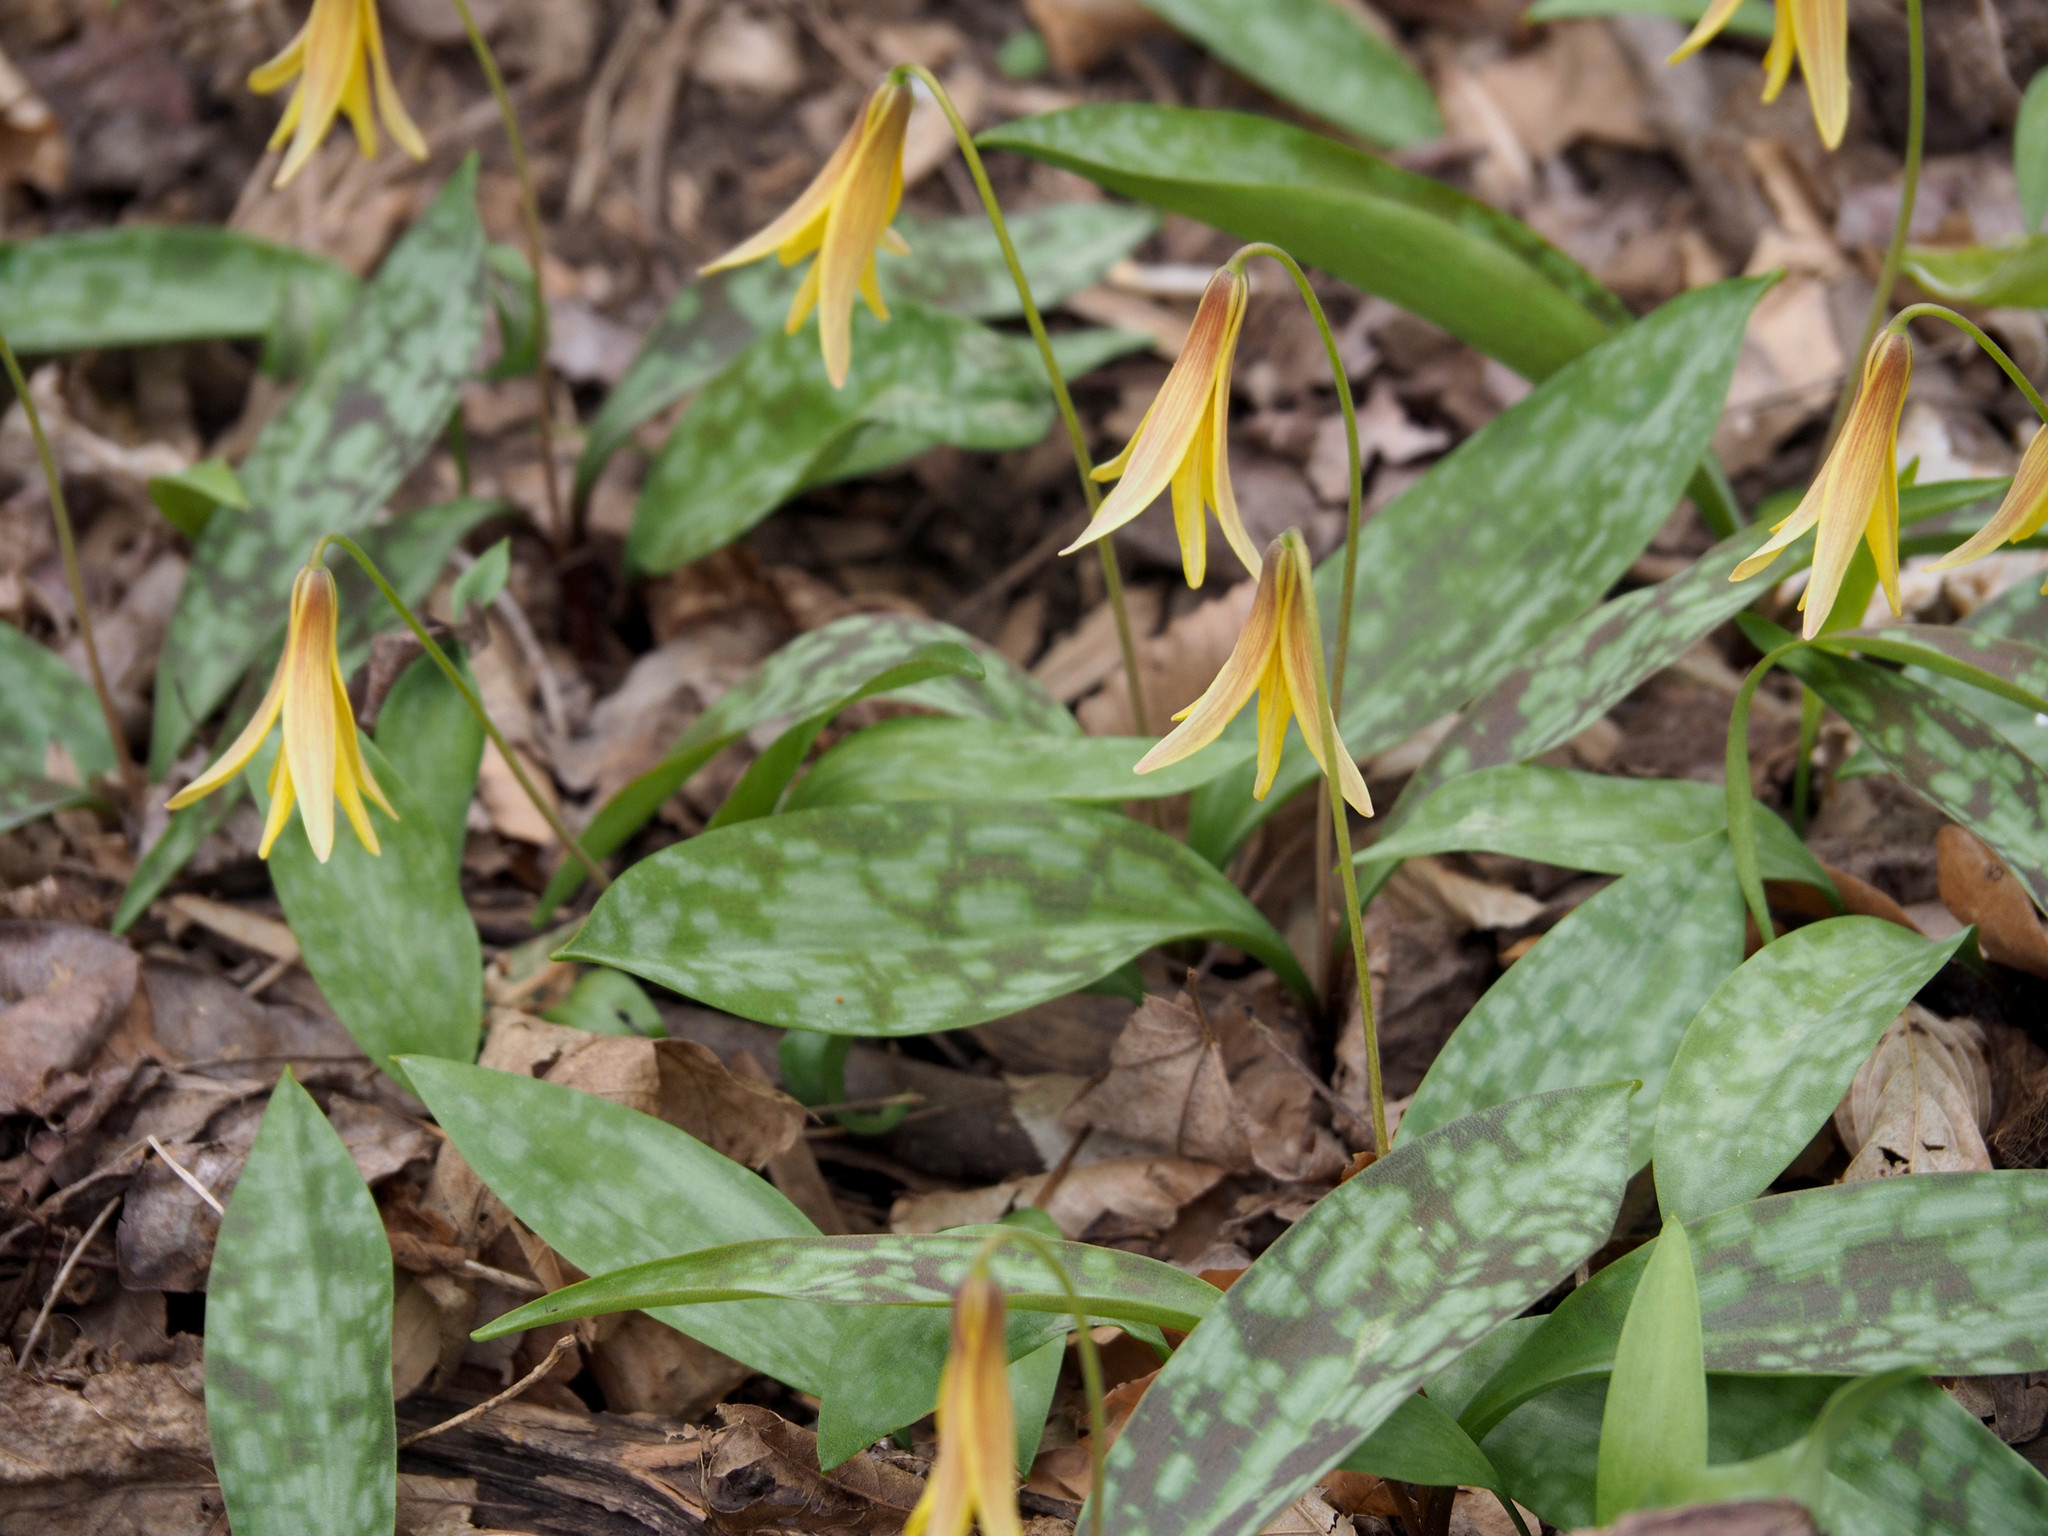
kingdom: Plantae
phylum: Tracheophyta
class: Liliopsida
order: Liliales
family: Liliaceae
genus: Erythronium
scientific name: Erythronium americanum
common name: Yellow adder's-tongue
